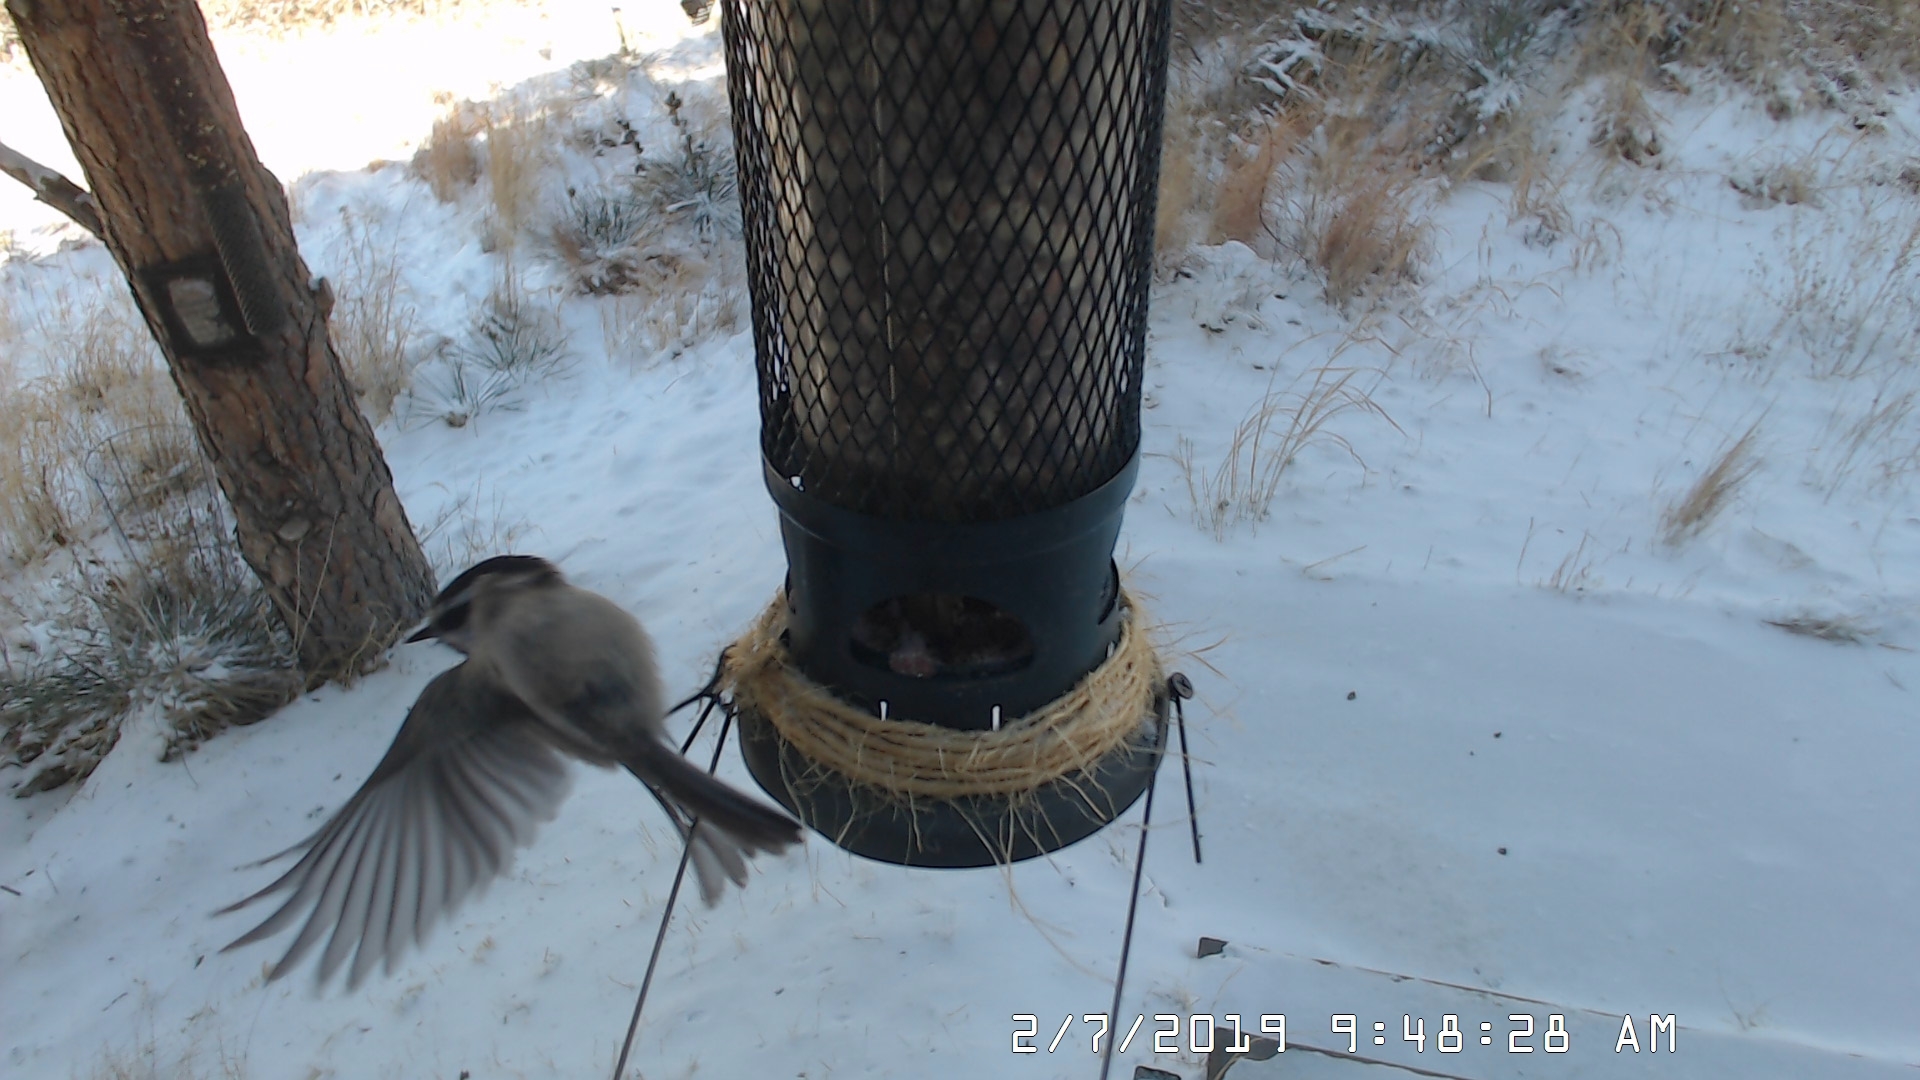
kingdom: Animalia
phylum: Chordata
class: Aves
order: Passeriformes
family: Paridae
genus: Poecile
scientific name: Poecile gambeli
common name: Mountain chickadee
